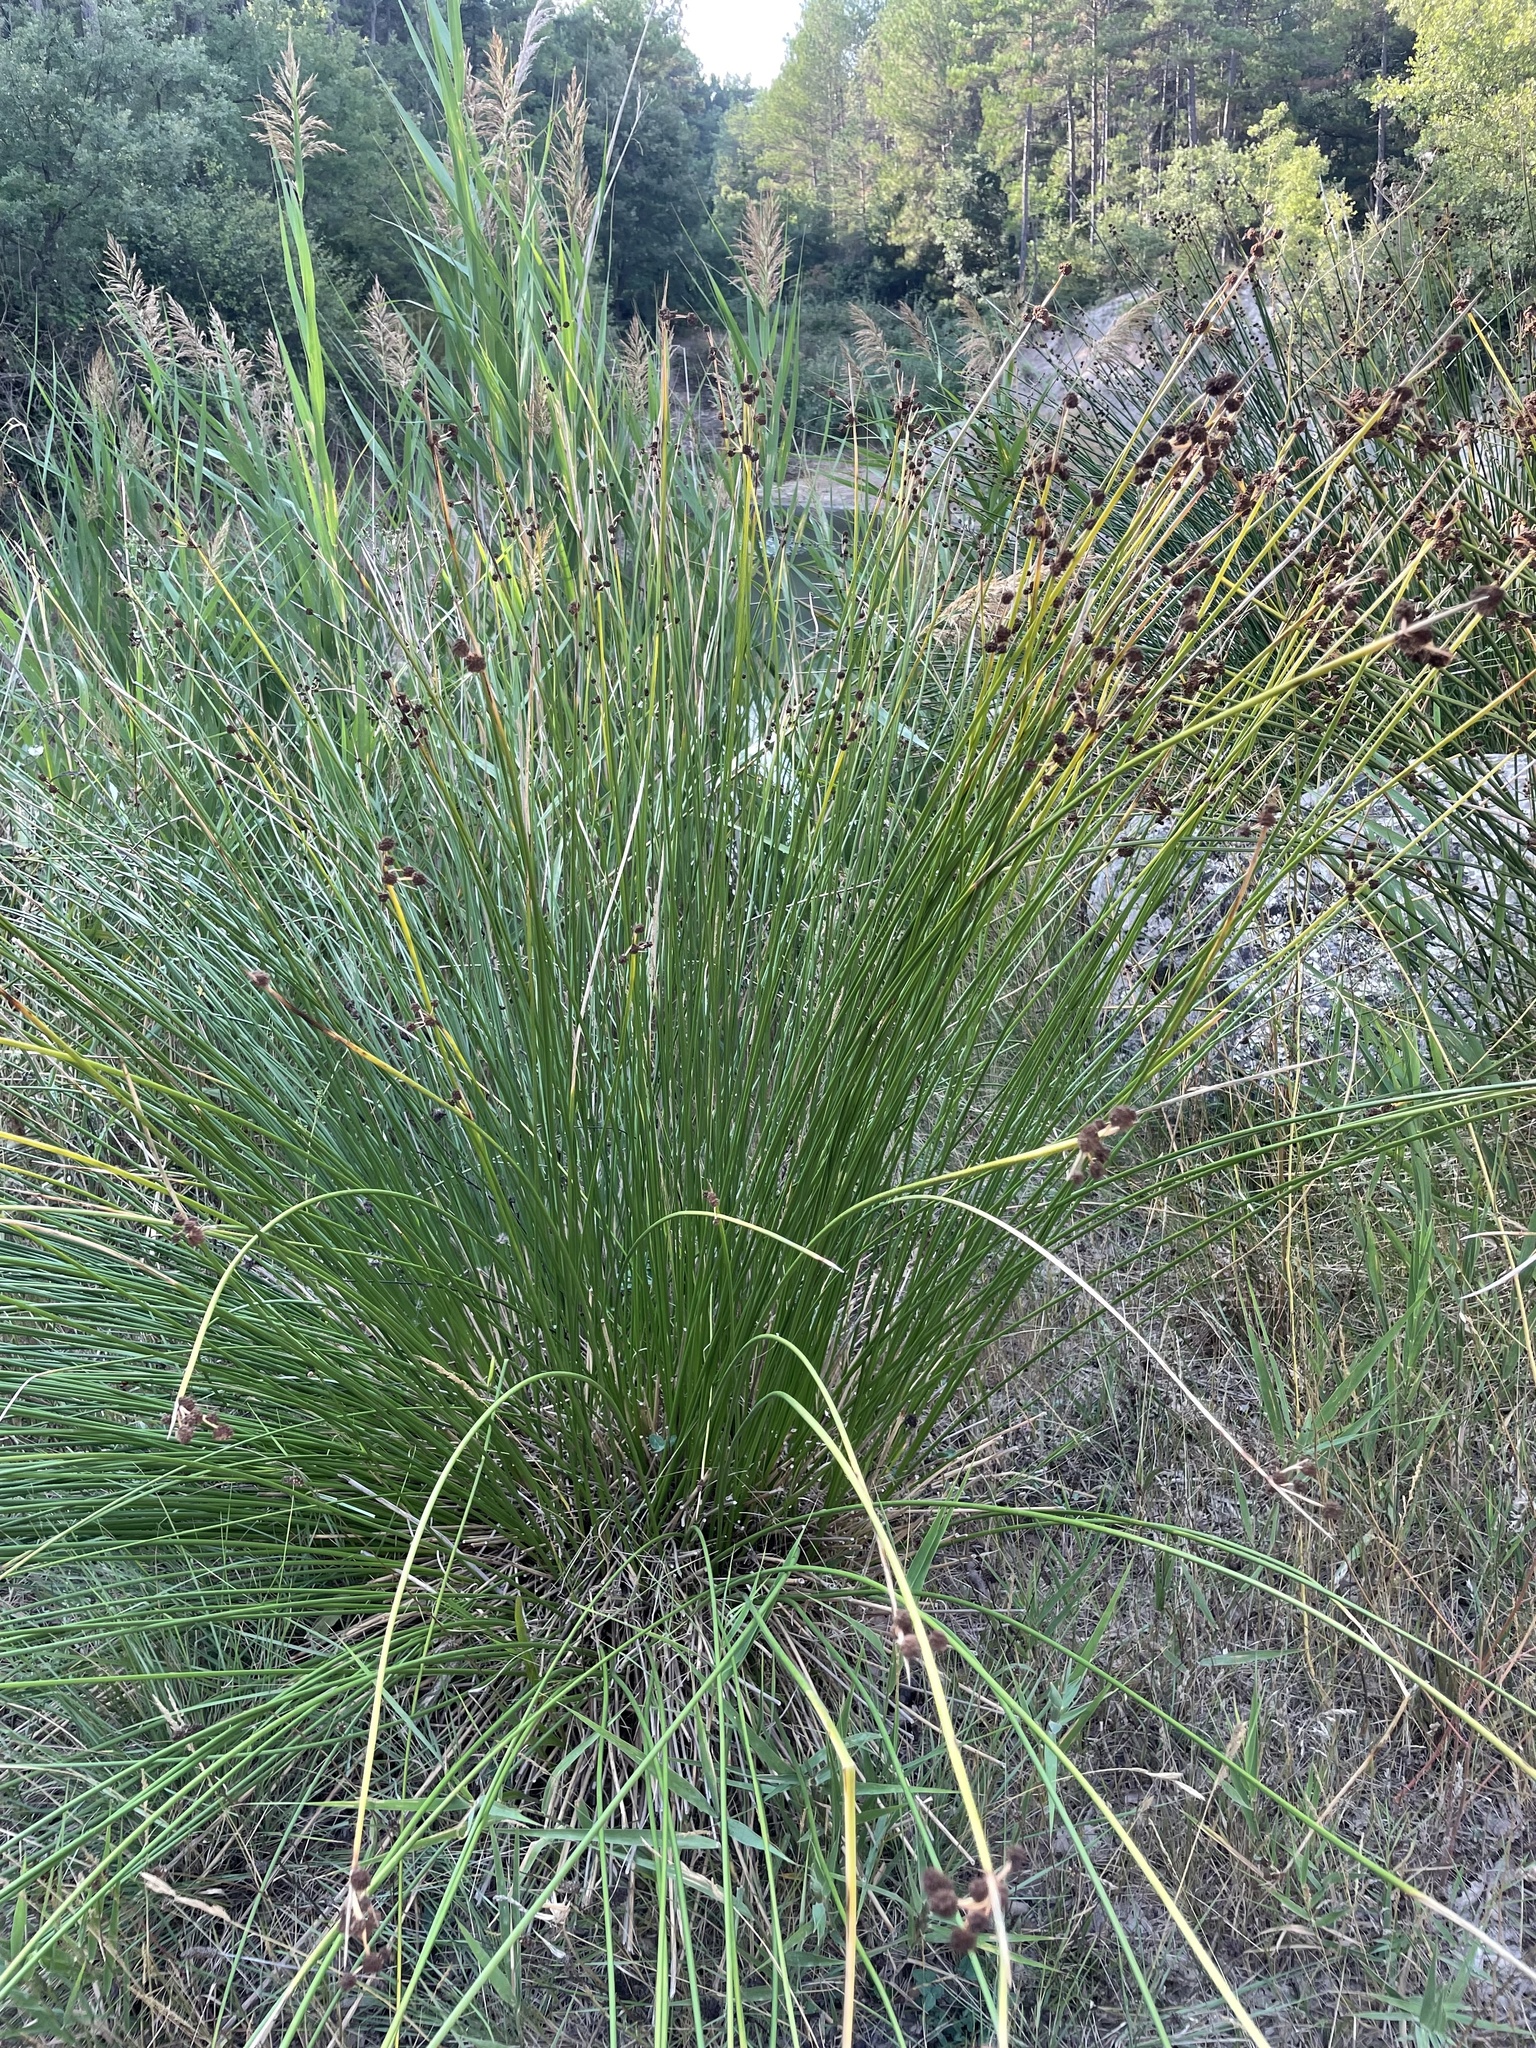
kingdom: Plantae
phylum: Tracheophyta
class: Liliopsida
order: Poales
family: Cyperaceae
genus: Scirpoides
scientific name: Scirpoides holoschoenus
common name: Round-headed club-rush
